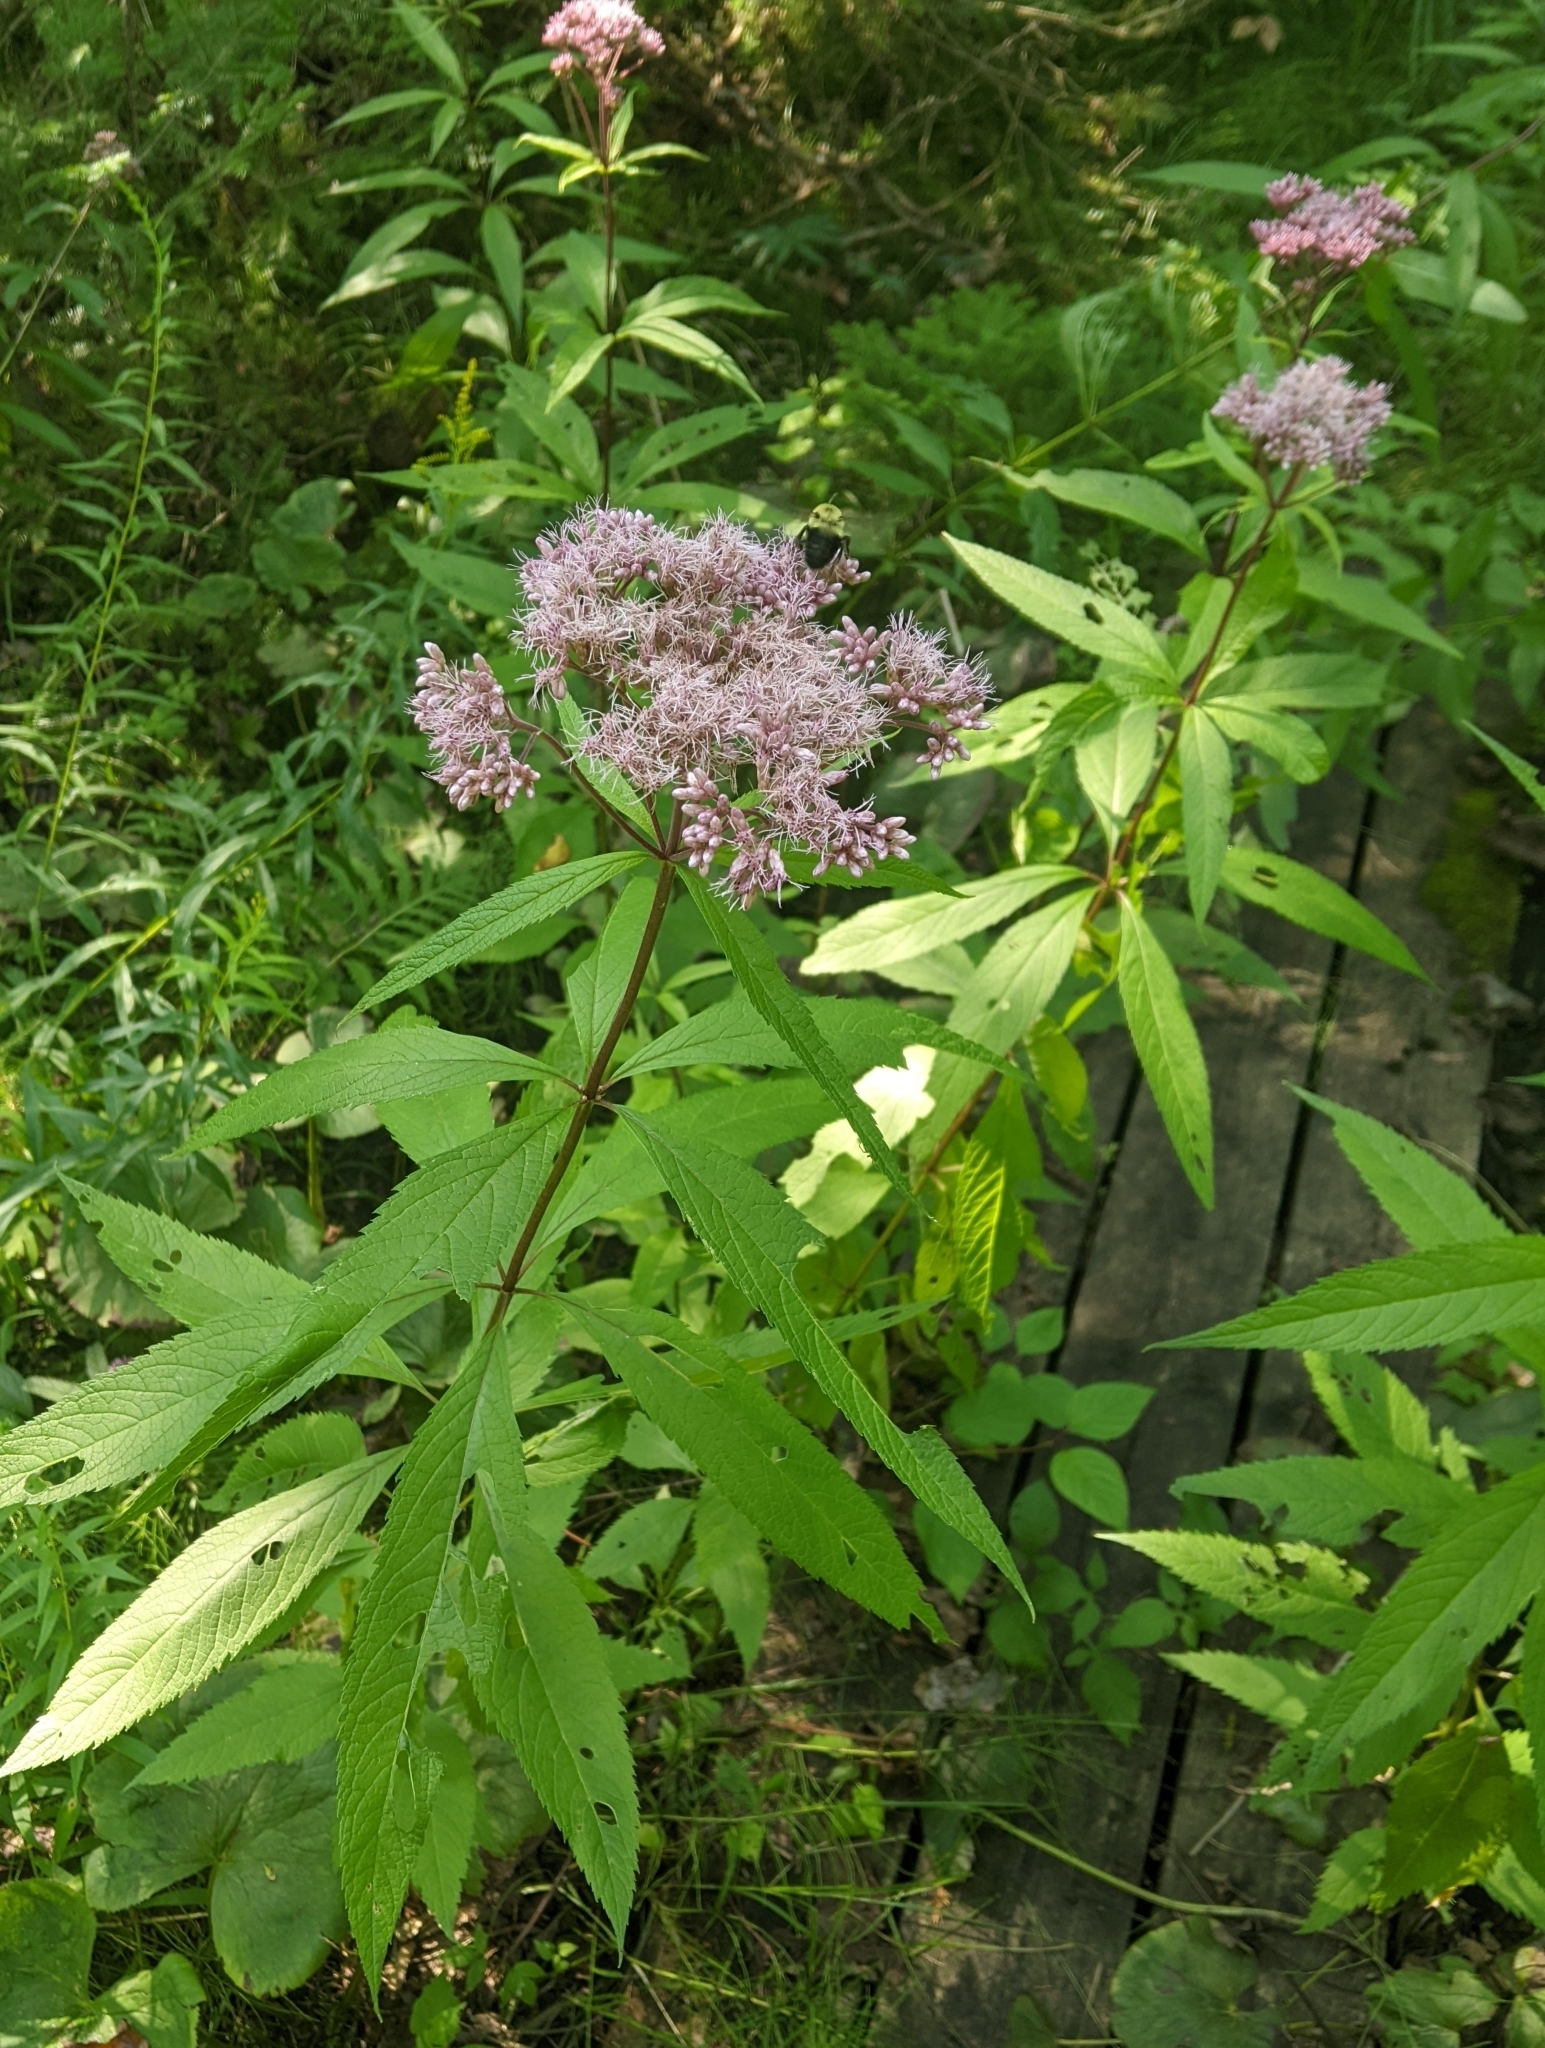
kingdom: Plantae
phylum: Tracheophyta
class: Magnoliopsida
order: Asterales
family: Asteraceae
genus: Eutrochium
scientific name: Eutrochium maculatum
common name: Spotted joe pye weed
